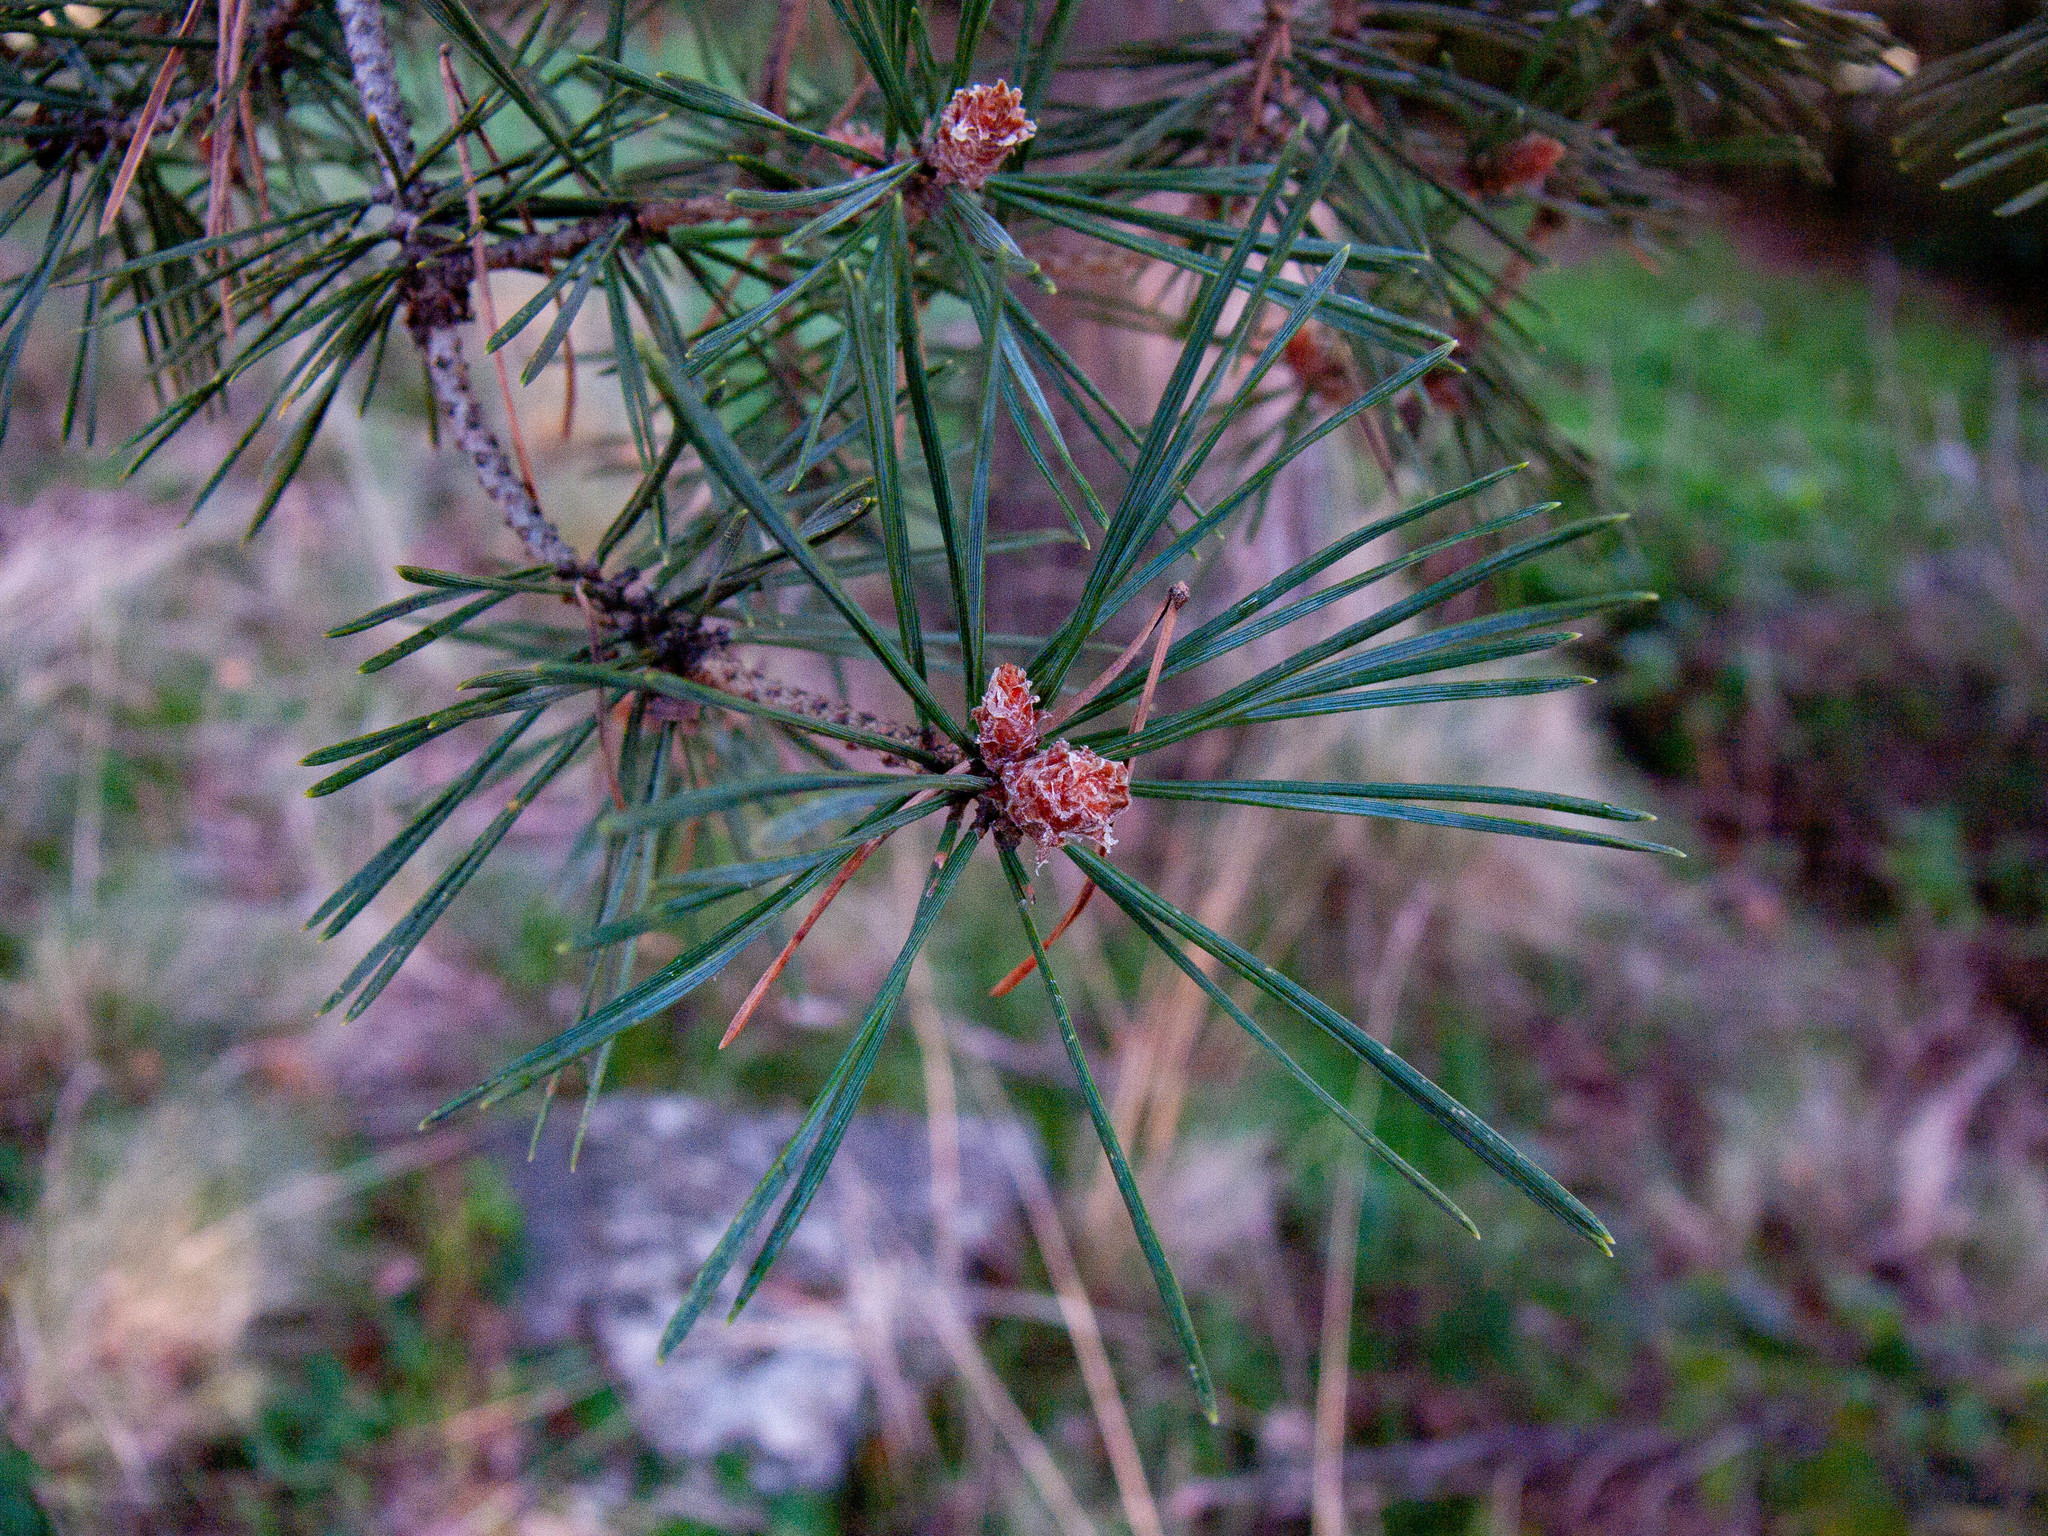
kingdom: Plantae
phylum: Tracheophyta
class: Pinopsida
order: Pinales
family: Pinaceae
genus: Pinus
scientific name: Pinus sylvestris
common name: Scots pine
